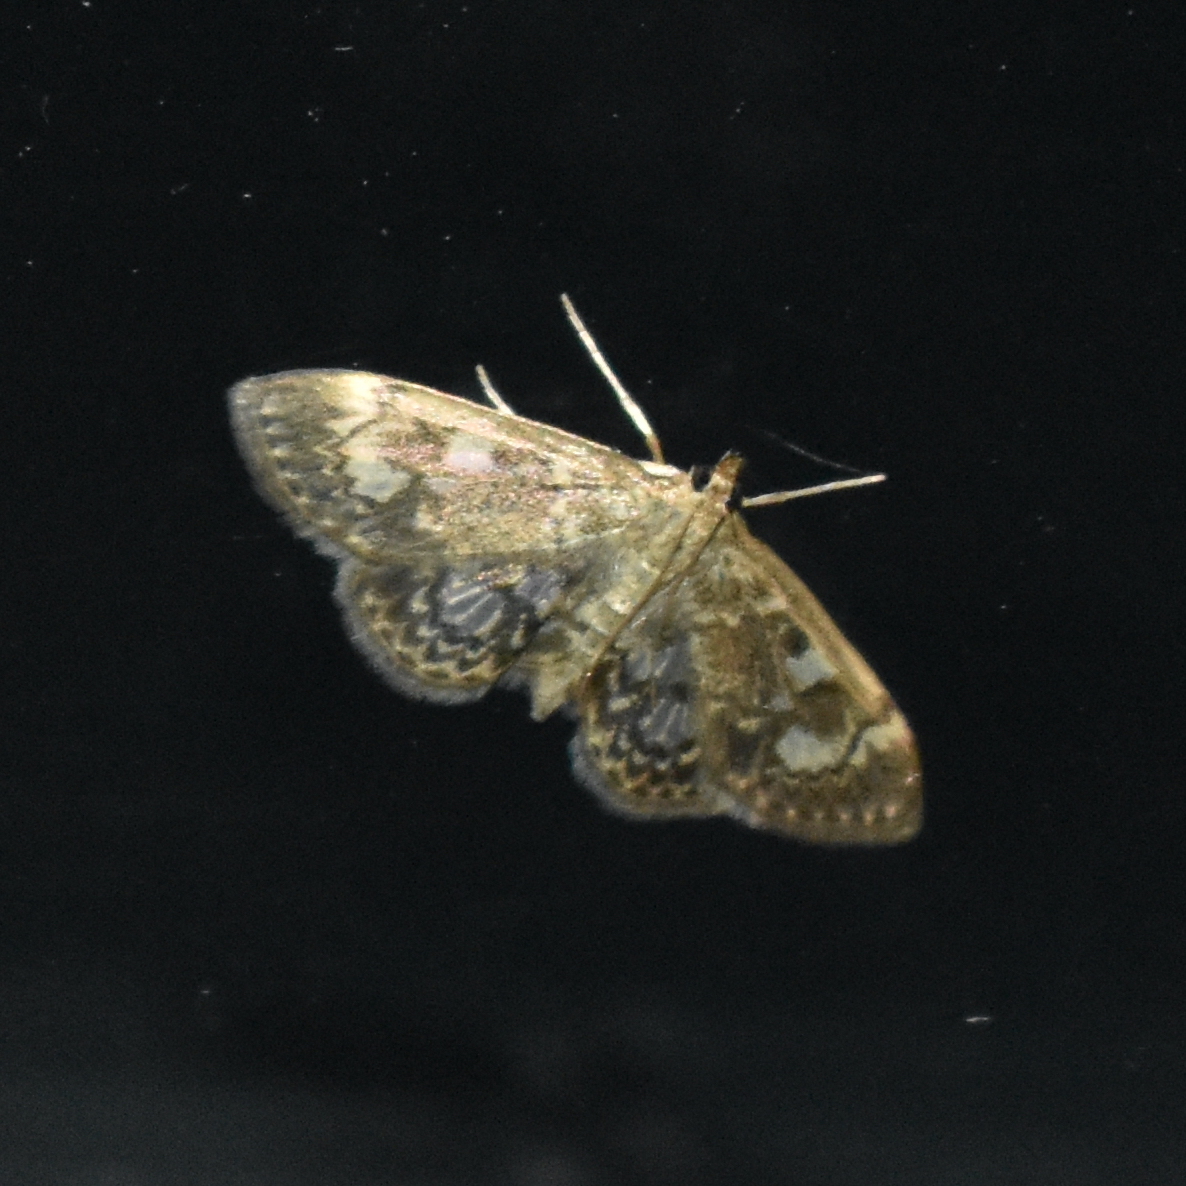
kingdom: Animalia
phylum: Arthropoda
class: Insecta
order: Lepidoptera
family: Crambidae
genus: Anania
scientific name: Anania tertialis
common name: Crowned phylctaenia moth
